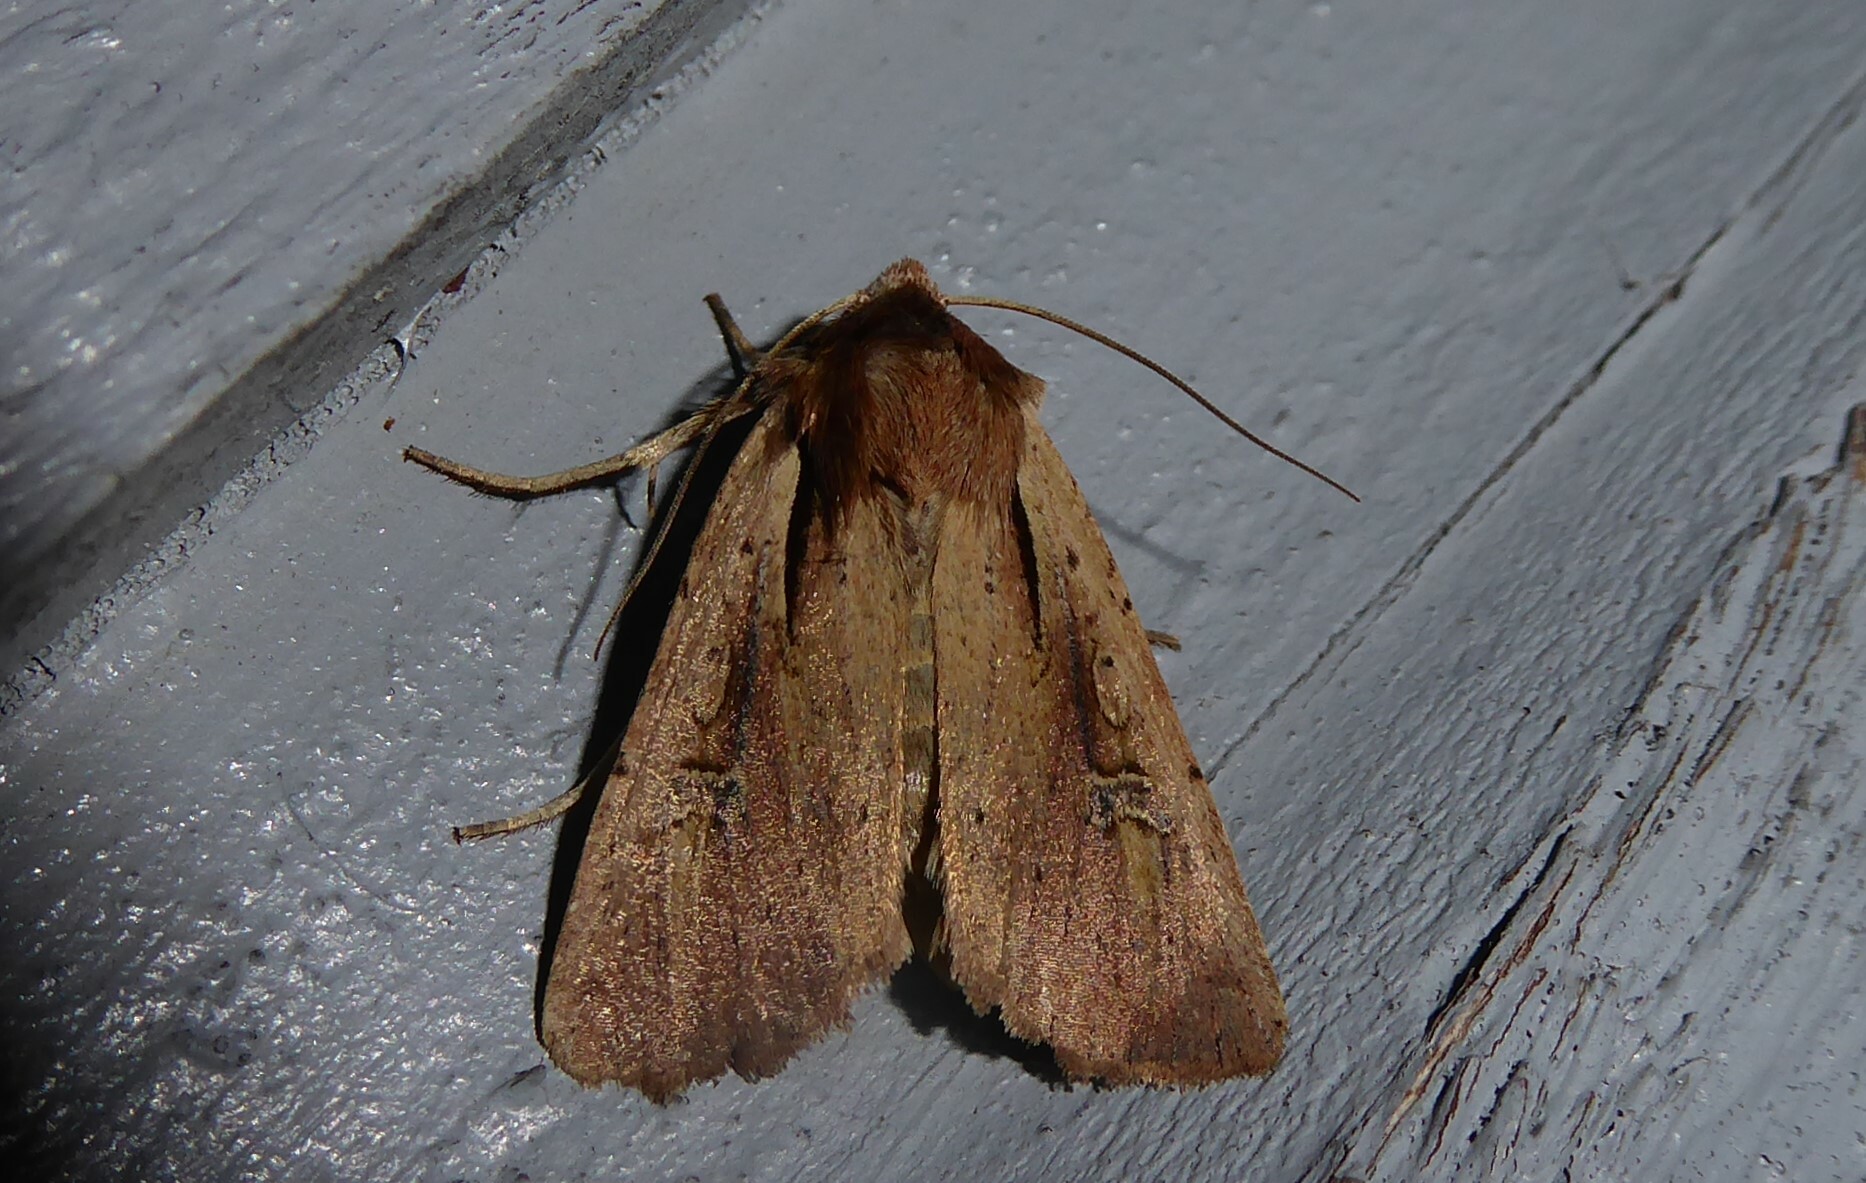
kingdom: Animalia
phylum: Arthropoda
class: Insecta
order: Lepidoptera
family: Noctuidae
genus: Ichneutica
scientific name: Ichneutica atristriga
